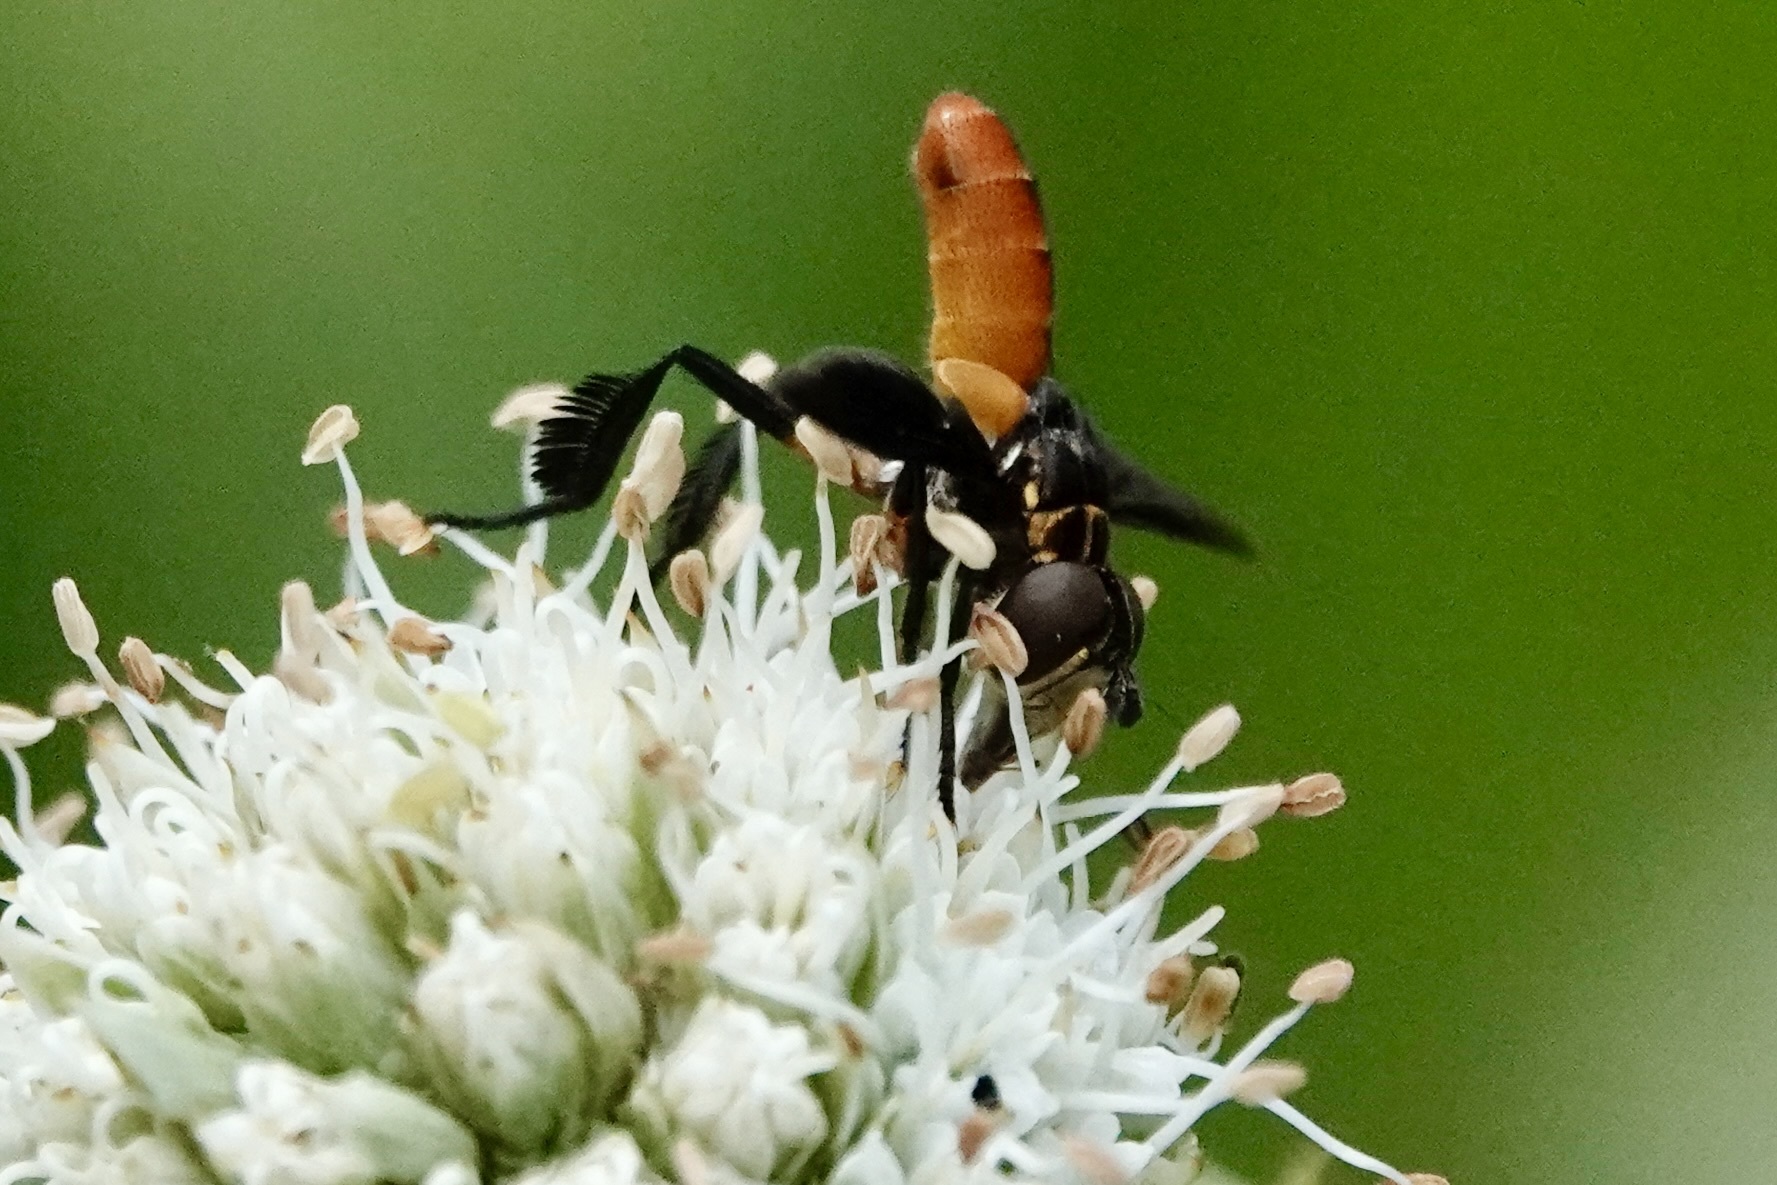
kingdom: Animalia
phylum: Arthropoda
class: Insecta
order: Diptera
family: Tachinidae
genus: Trichopoda
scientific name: Trichopoda pennipes
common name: Tachinid fly
